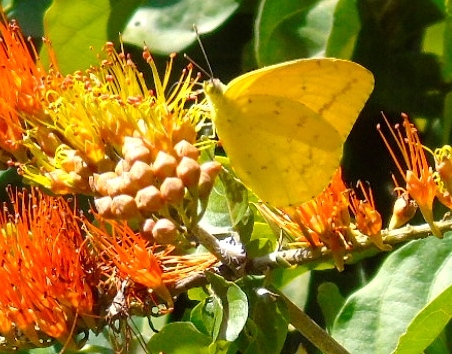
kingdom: Animalia
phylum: Arthropoda
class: Insecta
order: Lepidoptera
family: Pieridae
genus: Phoebis
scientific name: Phoebis agarithe
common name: Large orange sulphur
